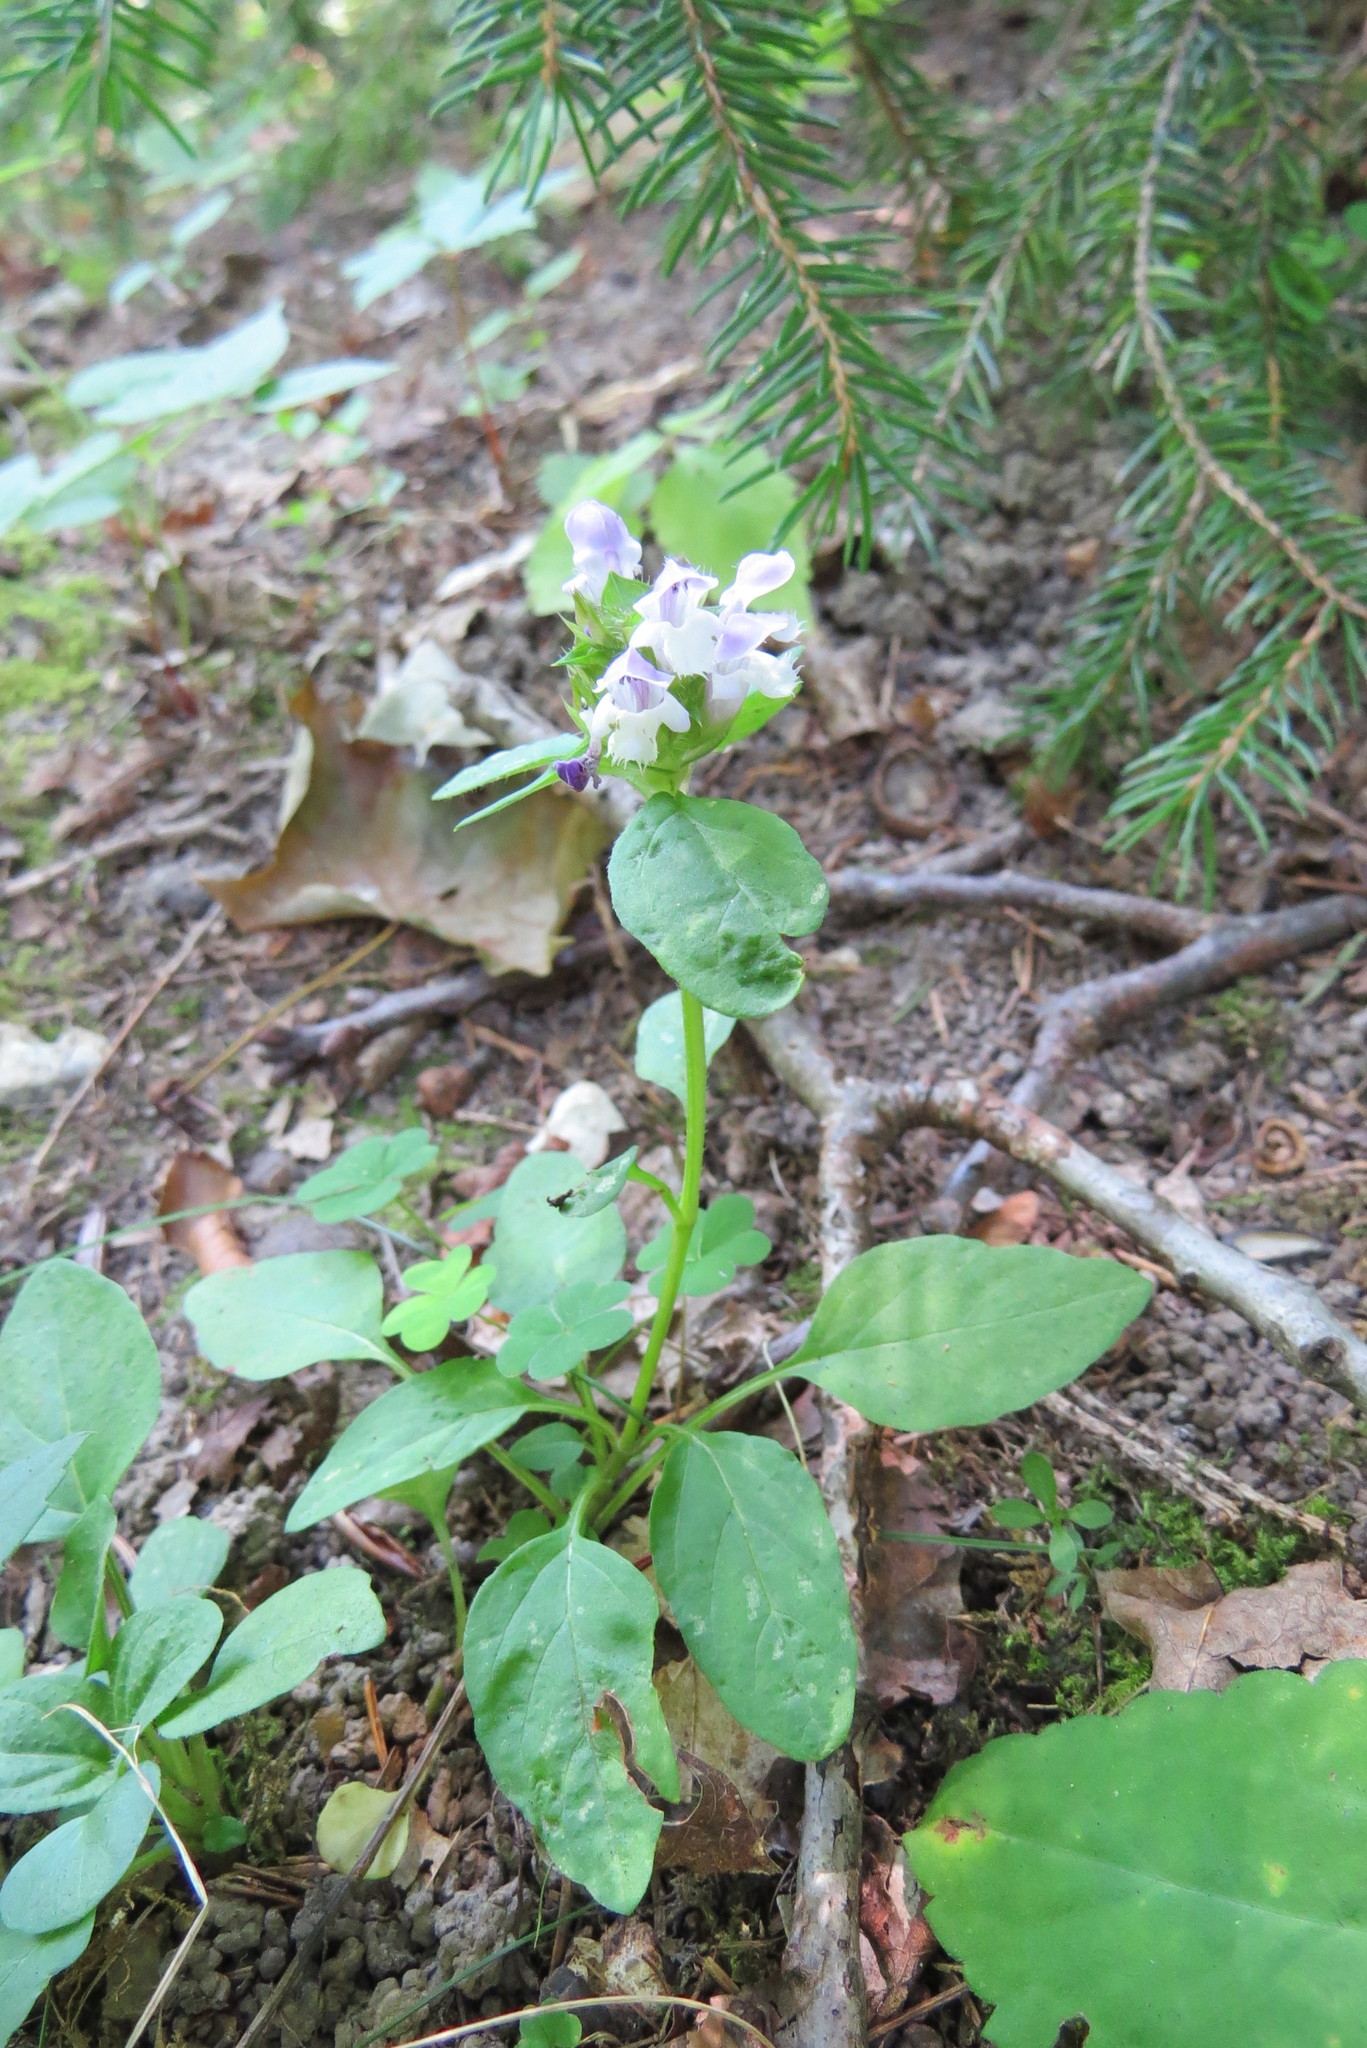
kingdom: Plantae
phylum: Tracheophyta
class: Magnoliopsida
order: Lamiales
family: Lamiaceae
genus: Prunella
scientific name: Prunella vulgaris
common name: Heal-all
